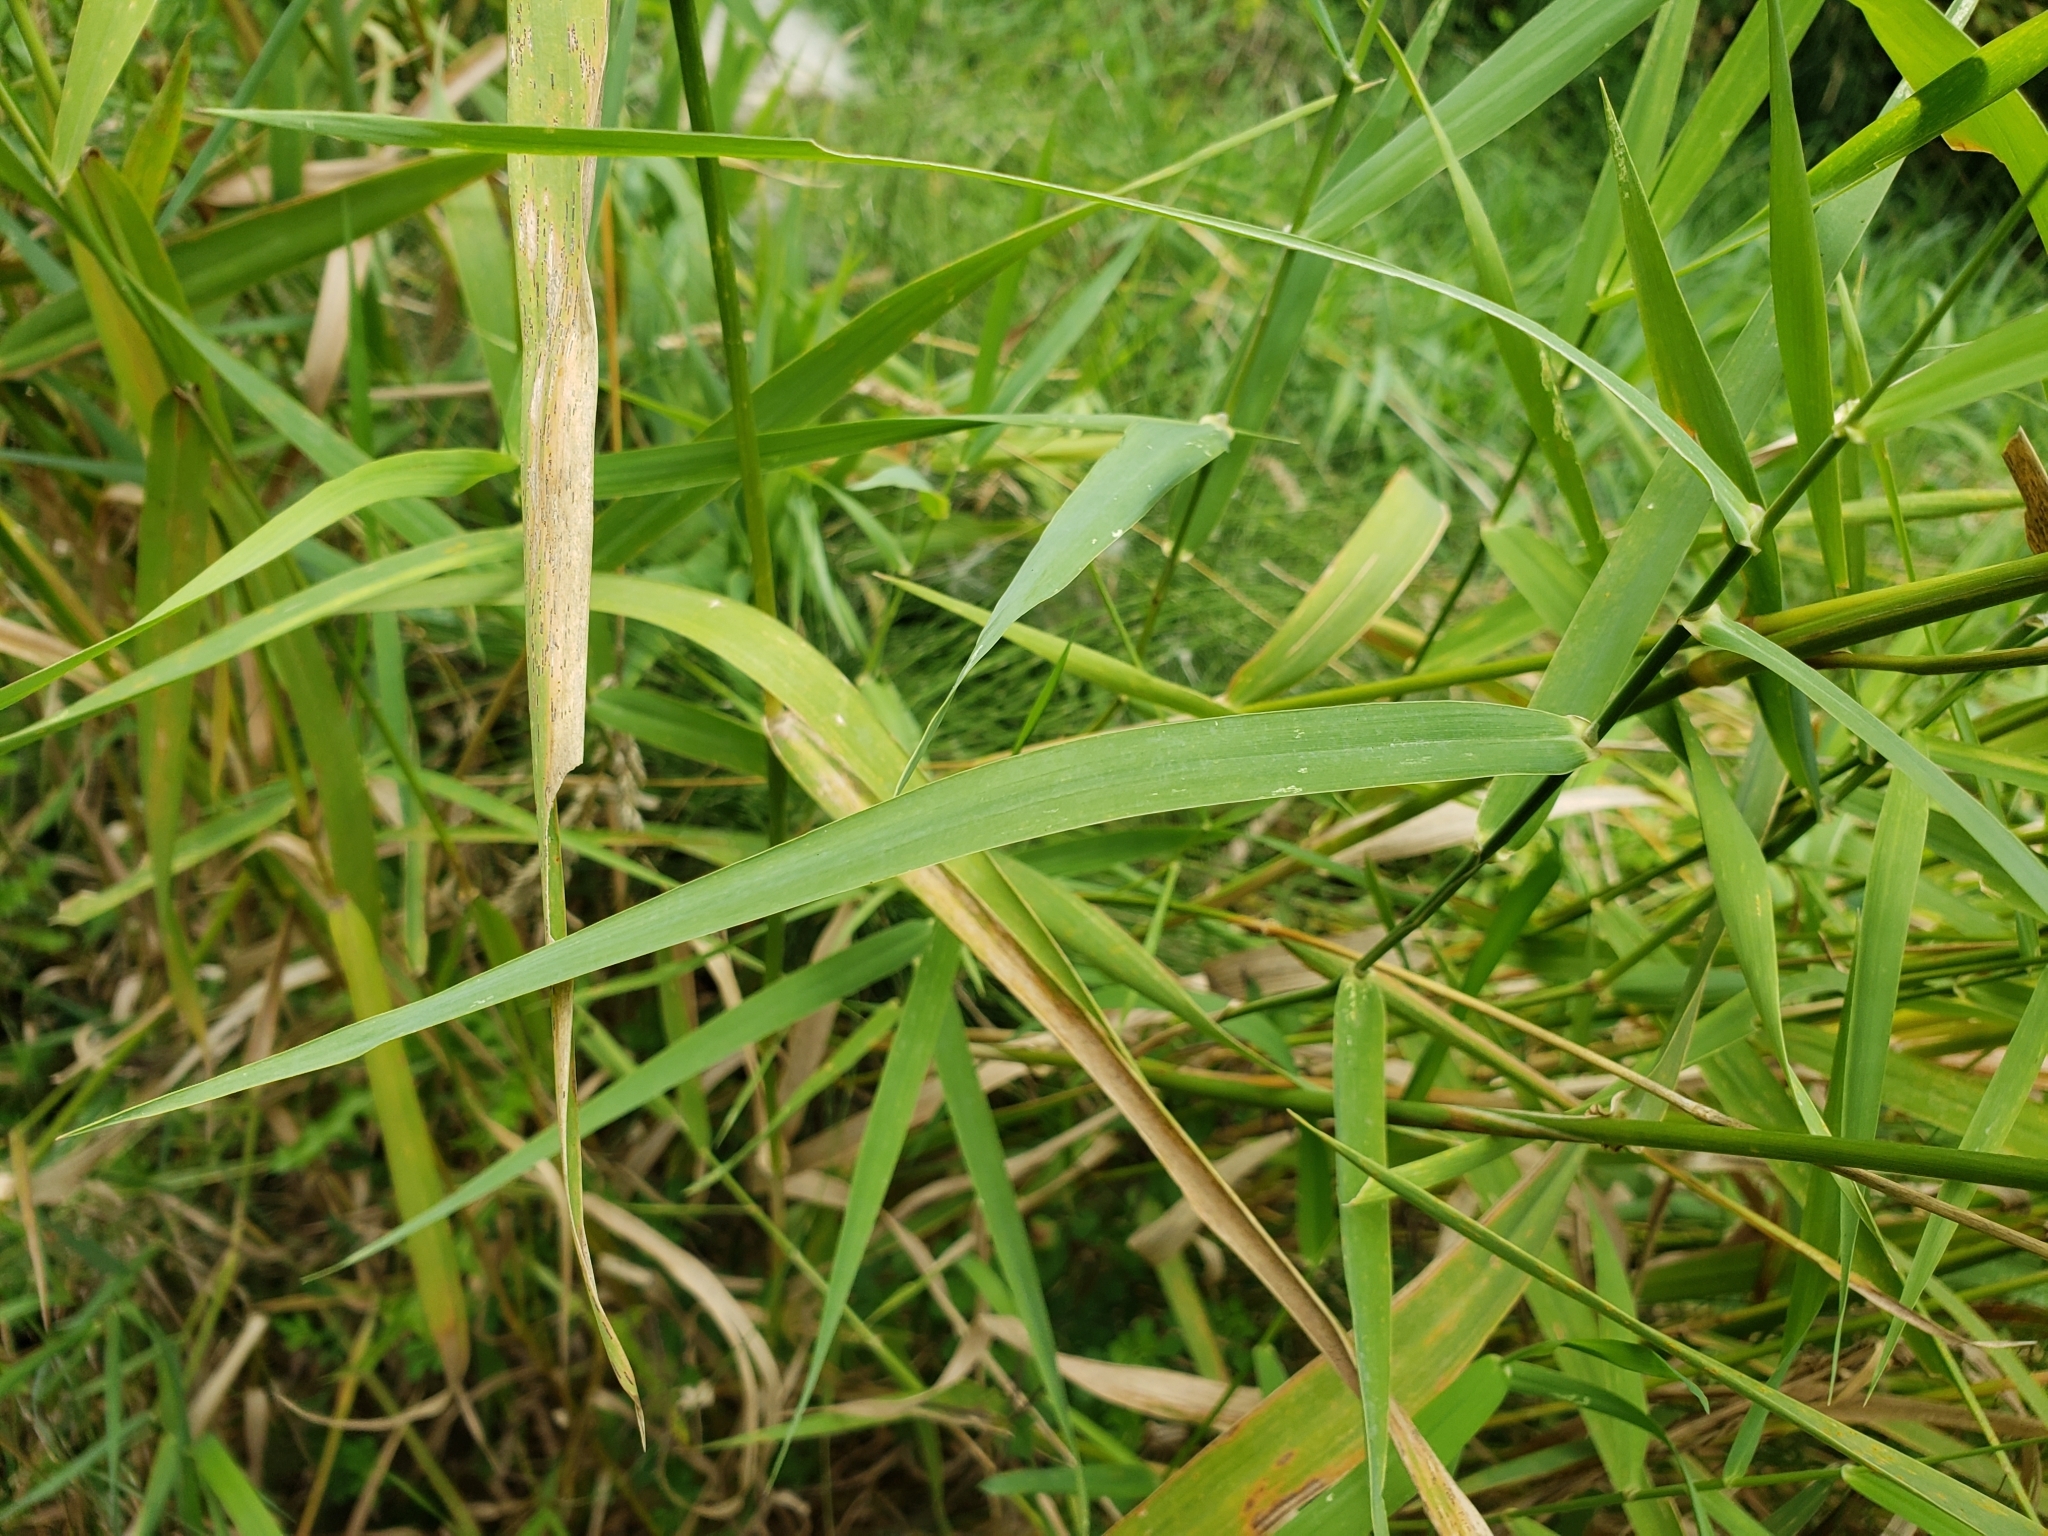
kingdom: Plantae
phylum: Tracheophyta
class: Liliopsida
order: Poales
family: Poaceae
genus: Phalaris
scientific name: Phalaris arundinacea
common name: Reed canary-grass
